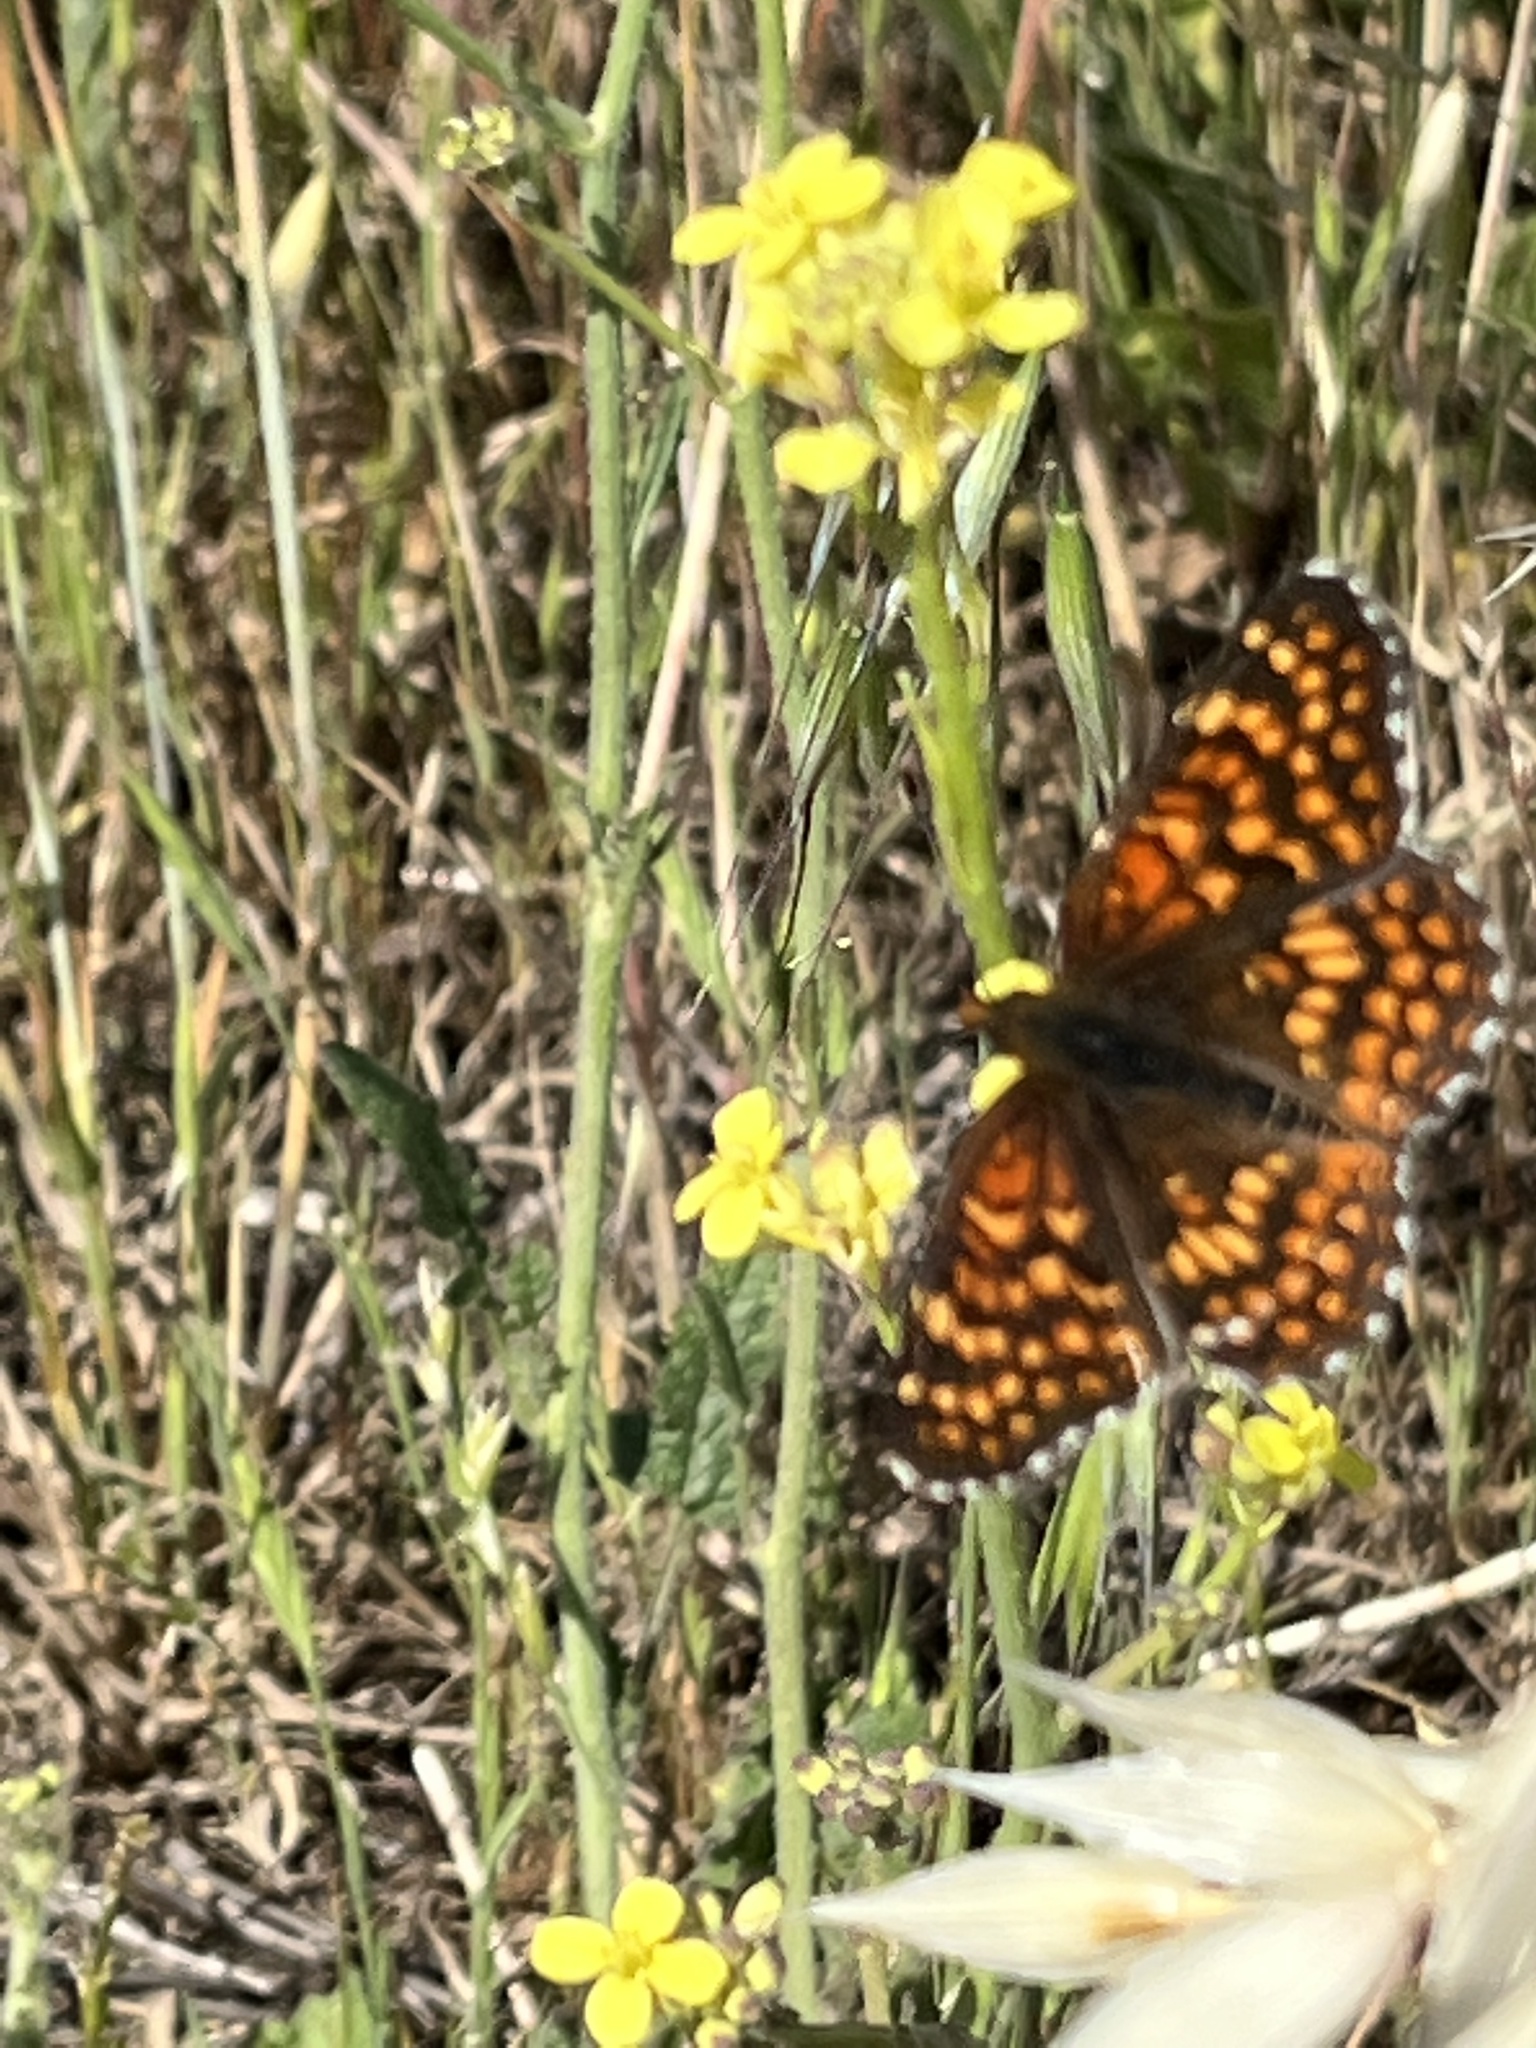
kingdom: Animalia
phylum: Arthropoda
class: Insecta
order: Lepidoptera
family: Nymphalidae
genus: Chlosyne
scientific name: Chlosyne gabbii
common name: Gabb's checkerspot
